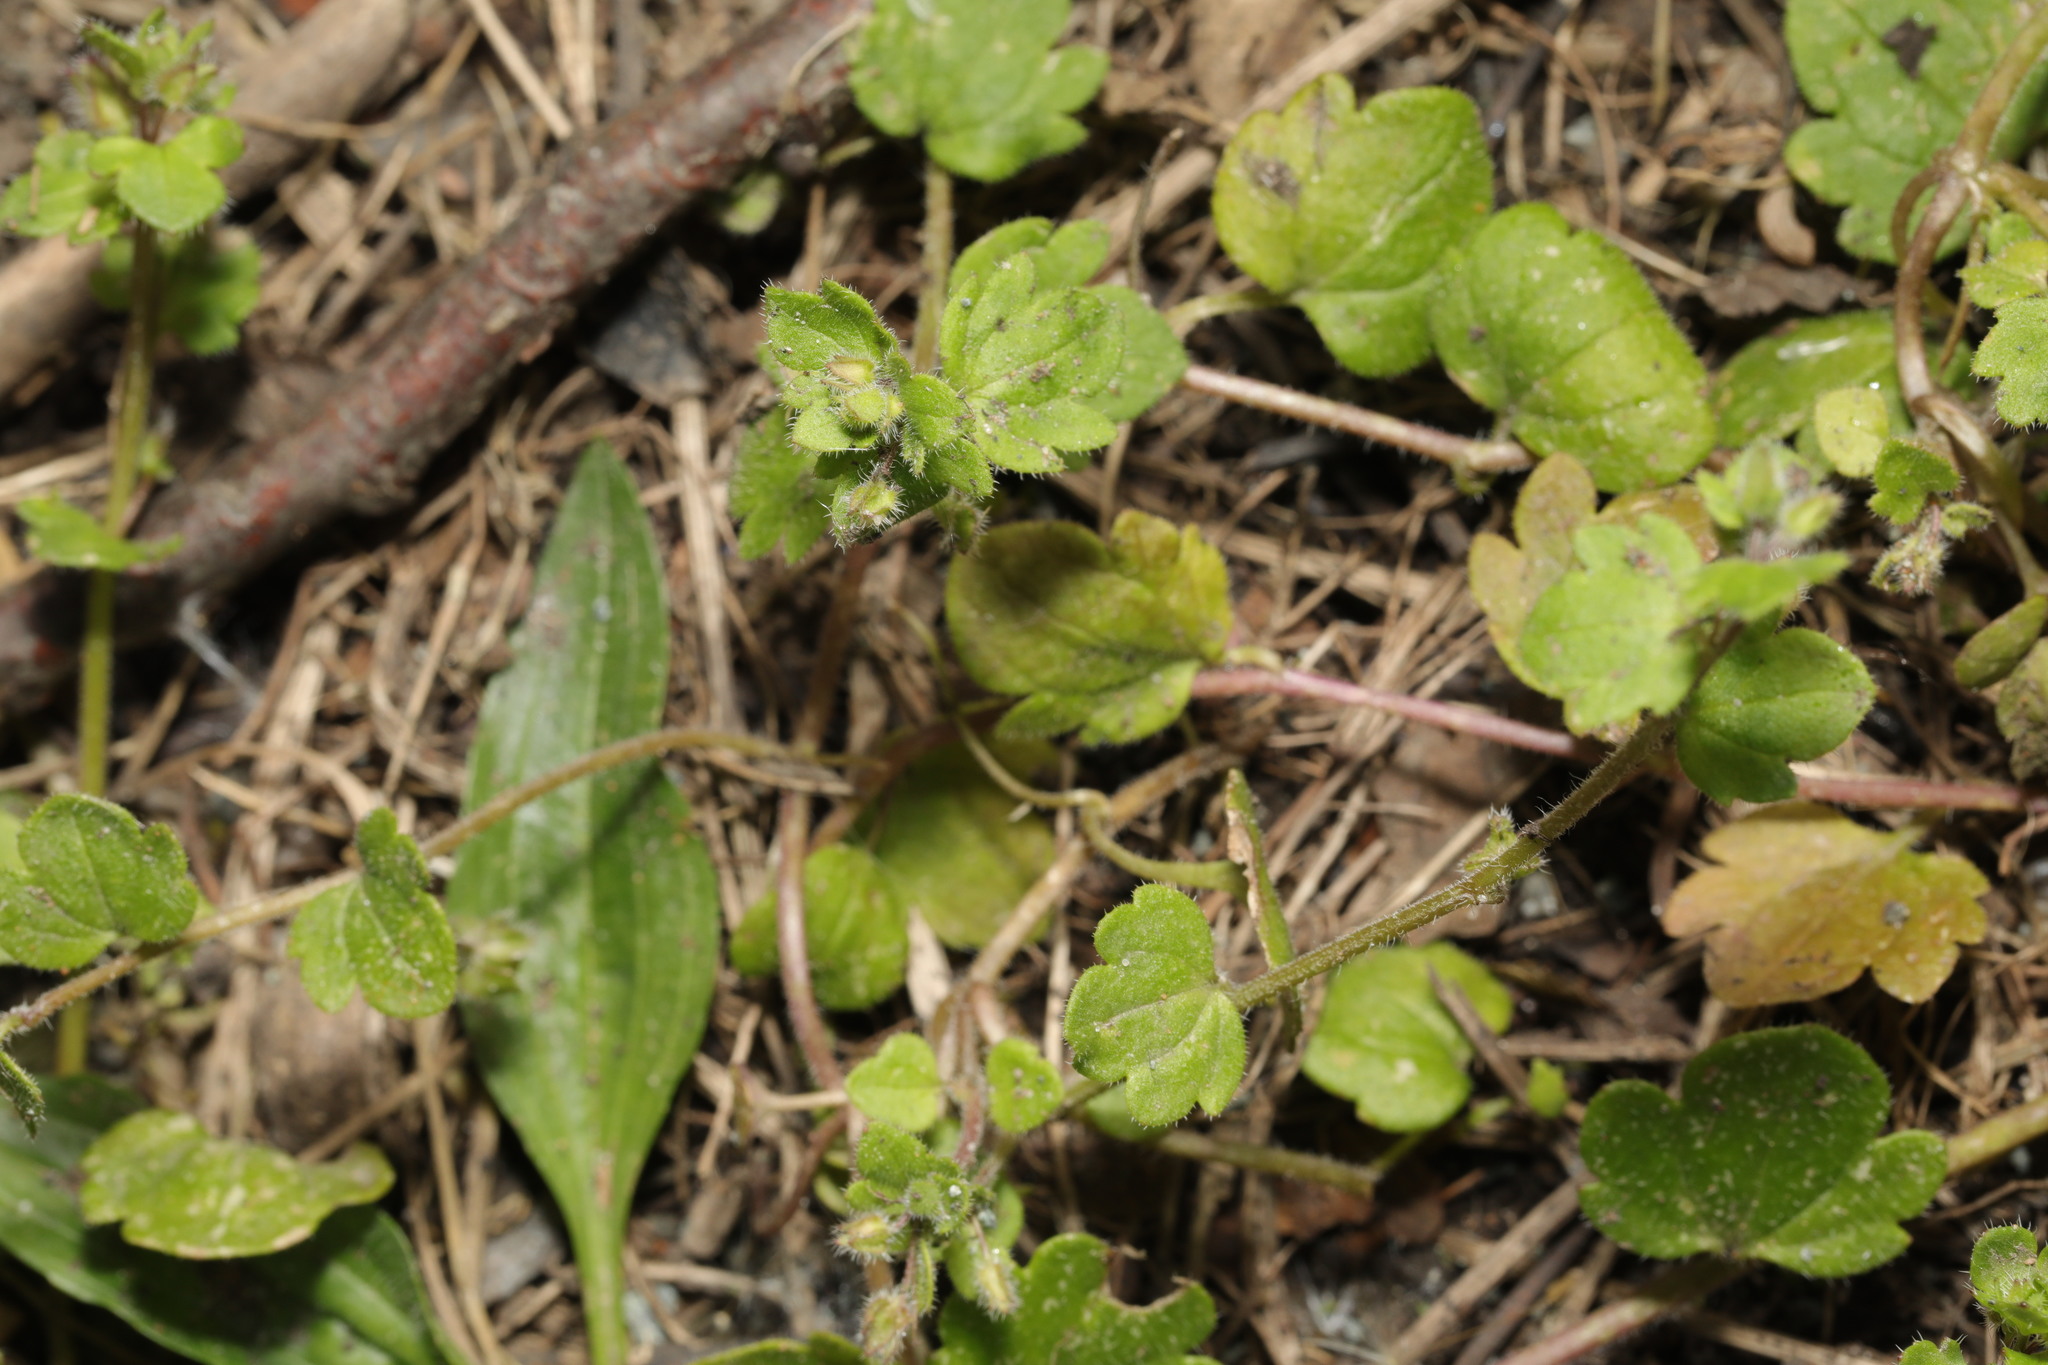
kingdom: Plantae
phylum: Tracheophyta
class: Magnoliopsida
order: Lamiales
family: Plantaginaceae
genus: Veronica
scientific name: Veronica hederifolia
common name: Ivy-leaved speedwell
